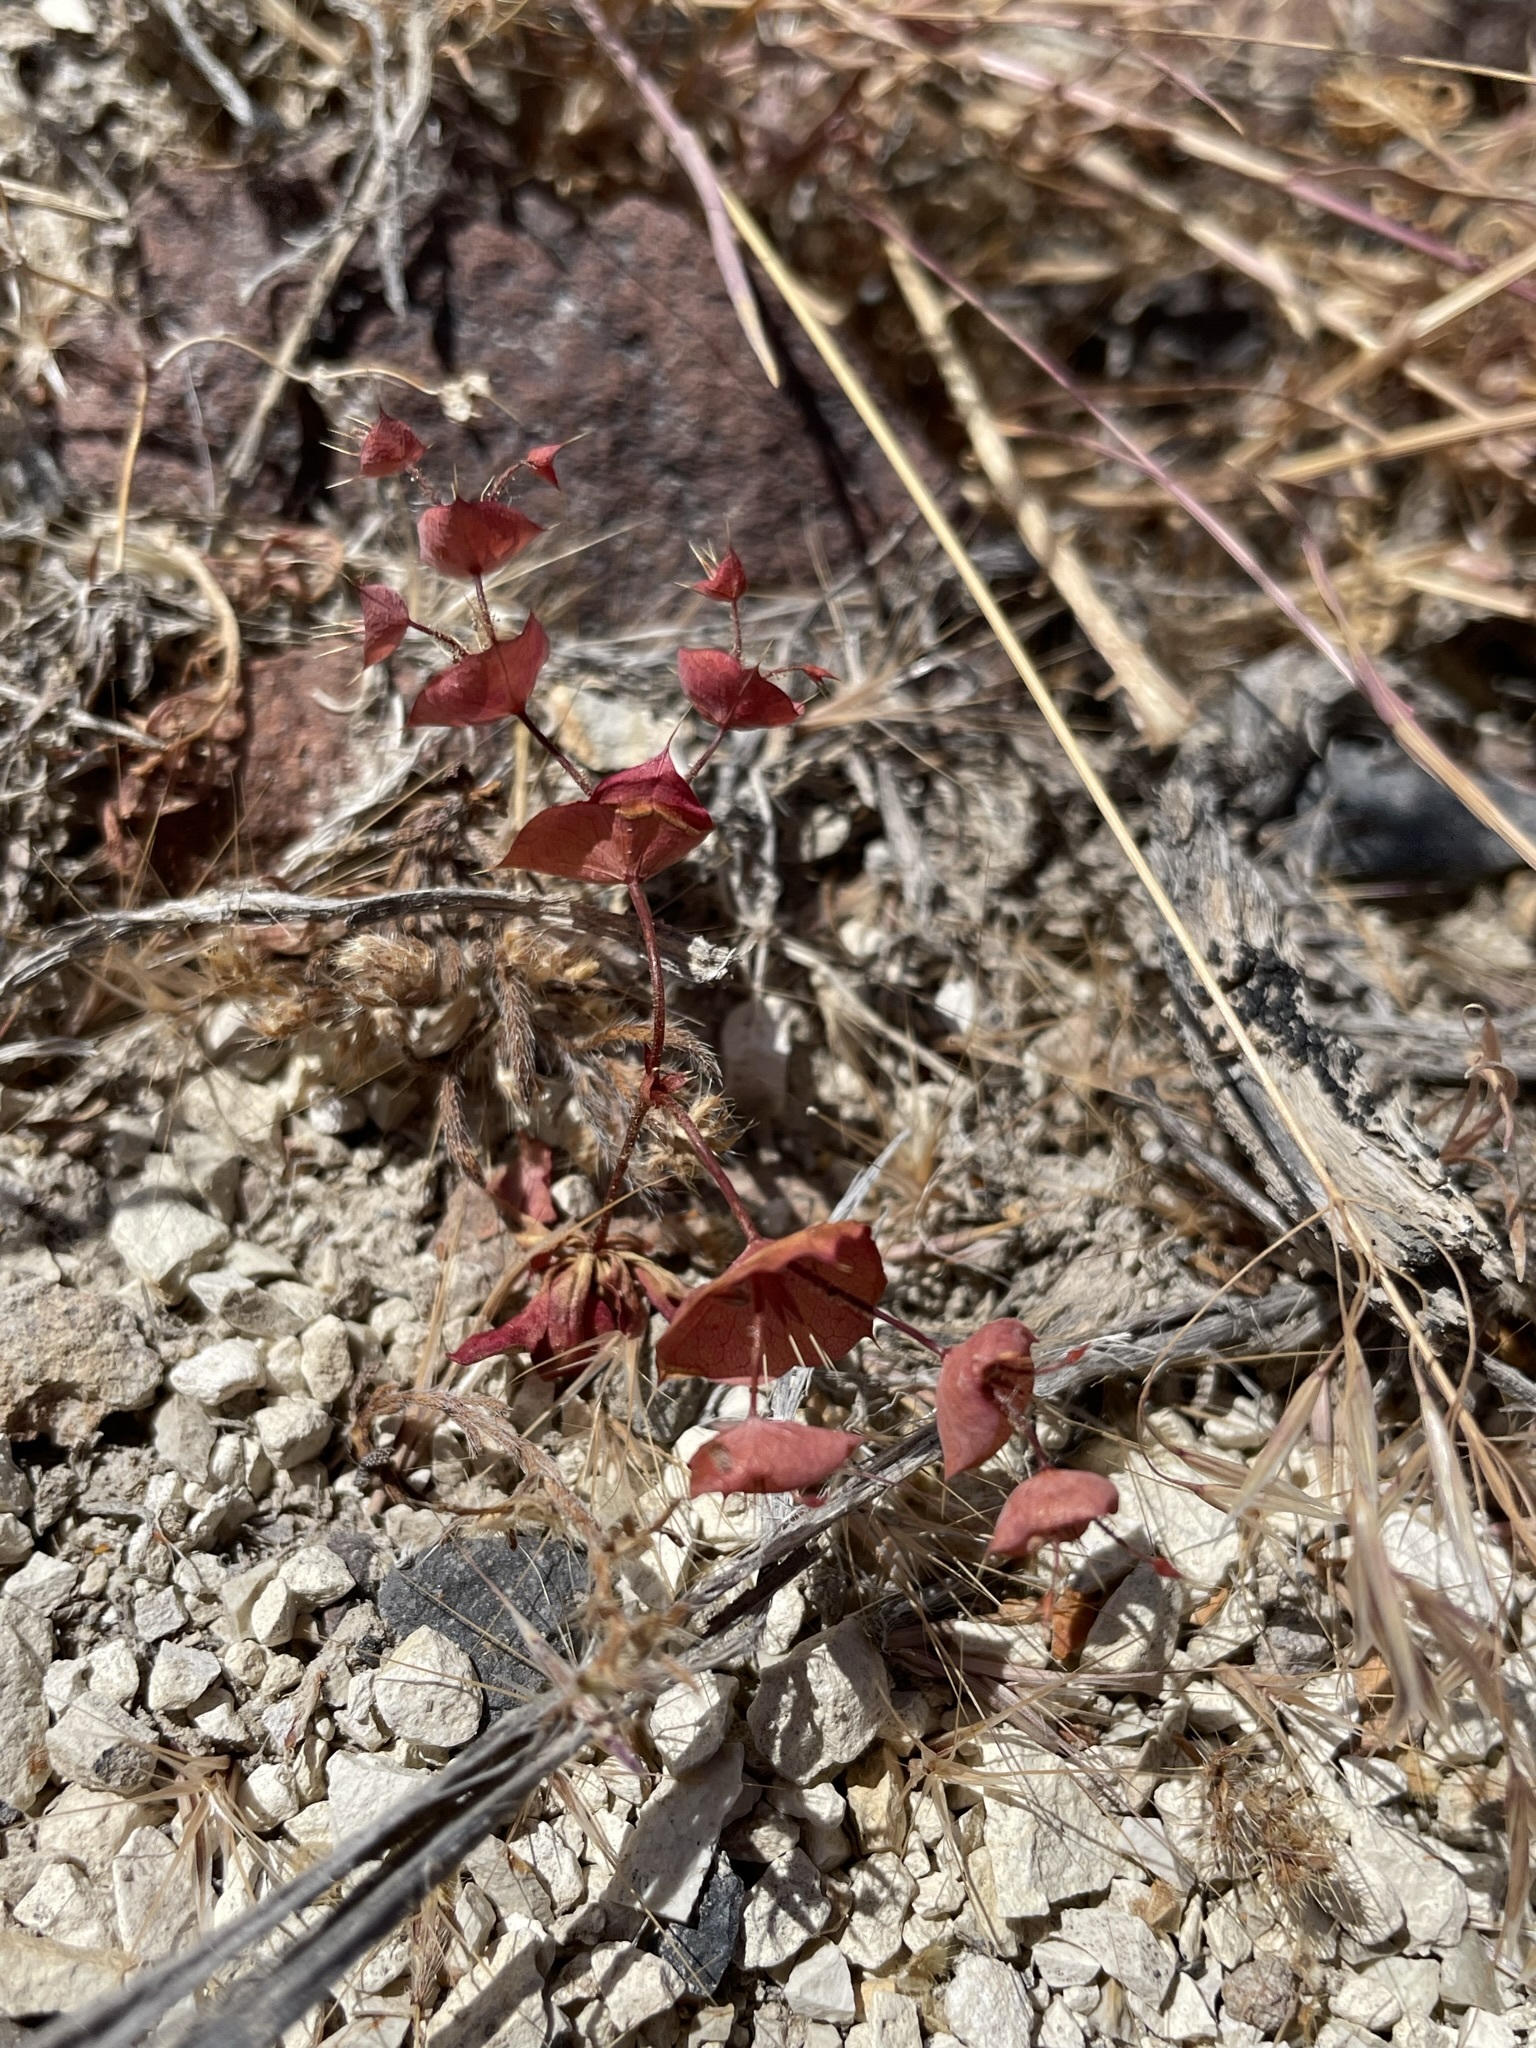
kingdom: Plantae
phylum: Tracheophyta
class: Magnoliopsida
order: Caryophyllales
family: Polygonaceae
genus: Oxytheca
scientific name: Oxytheca perfoliata
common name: Round-leaf puncturebract
